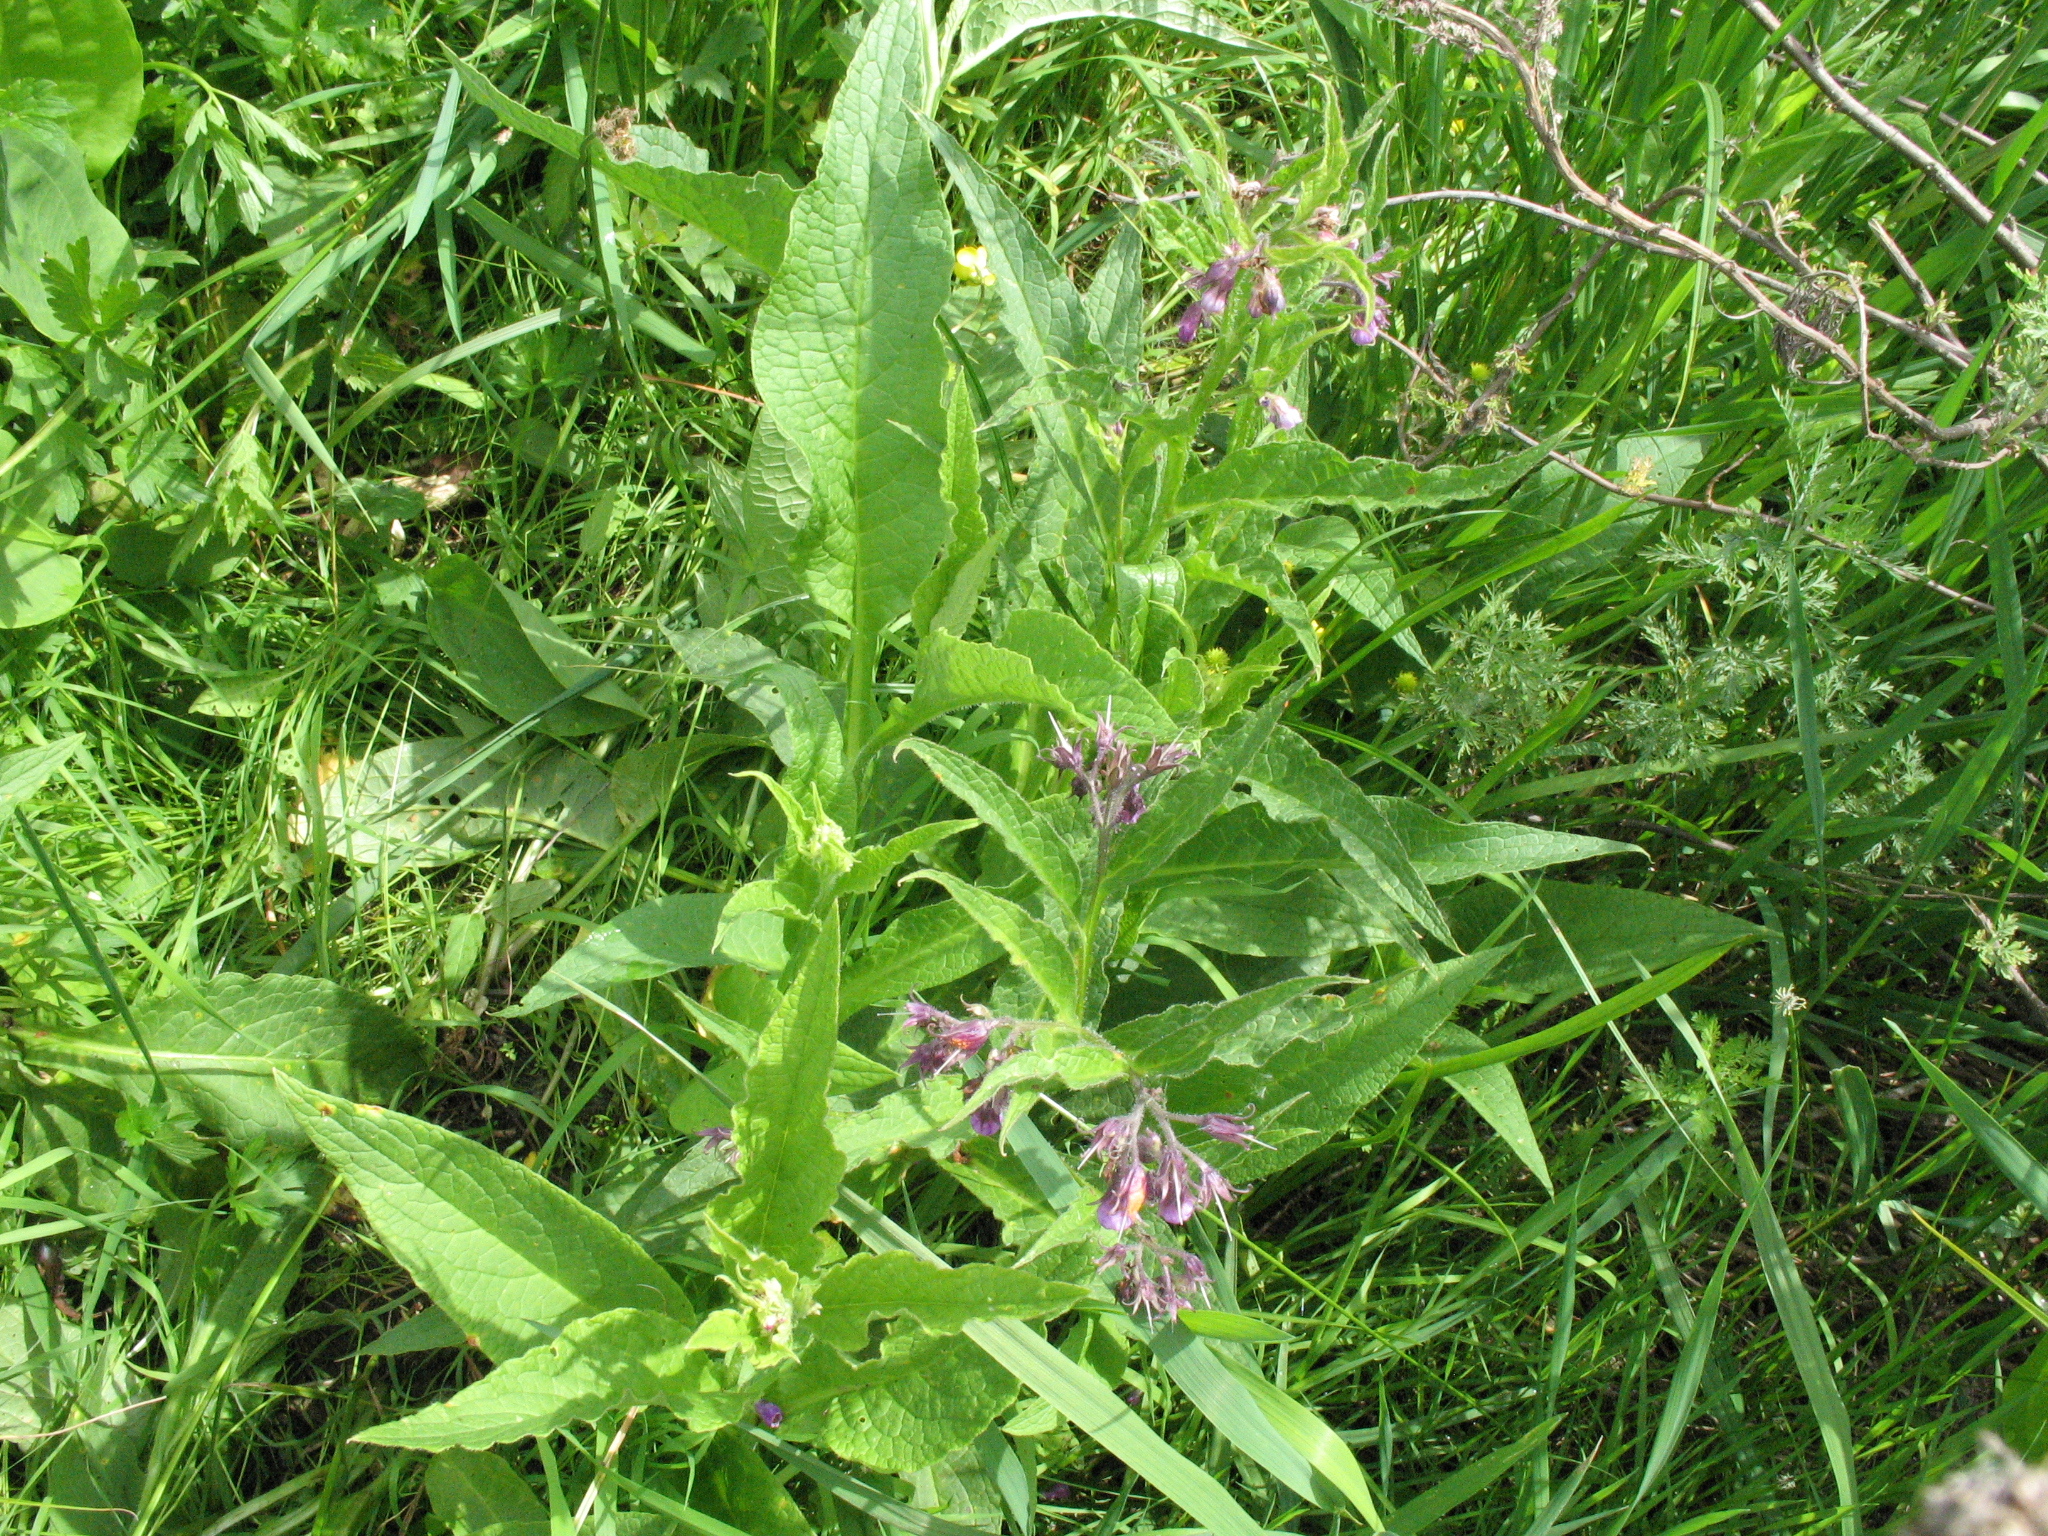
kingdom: Plantae
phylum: Tracheophyta
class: Magnoliopsida
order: Boraginales
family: Boraginaceae
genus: Symphytum
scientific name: Symphytum officinale
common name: Common comfrey
